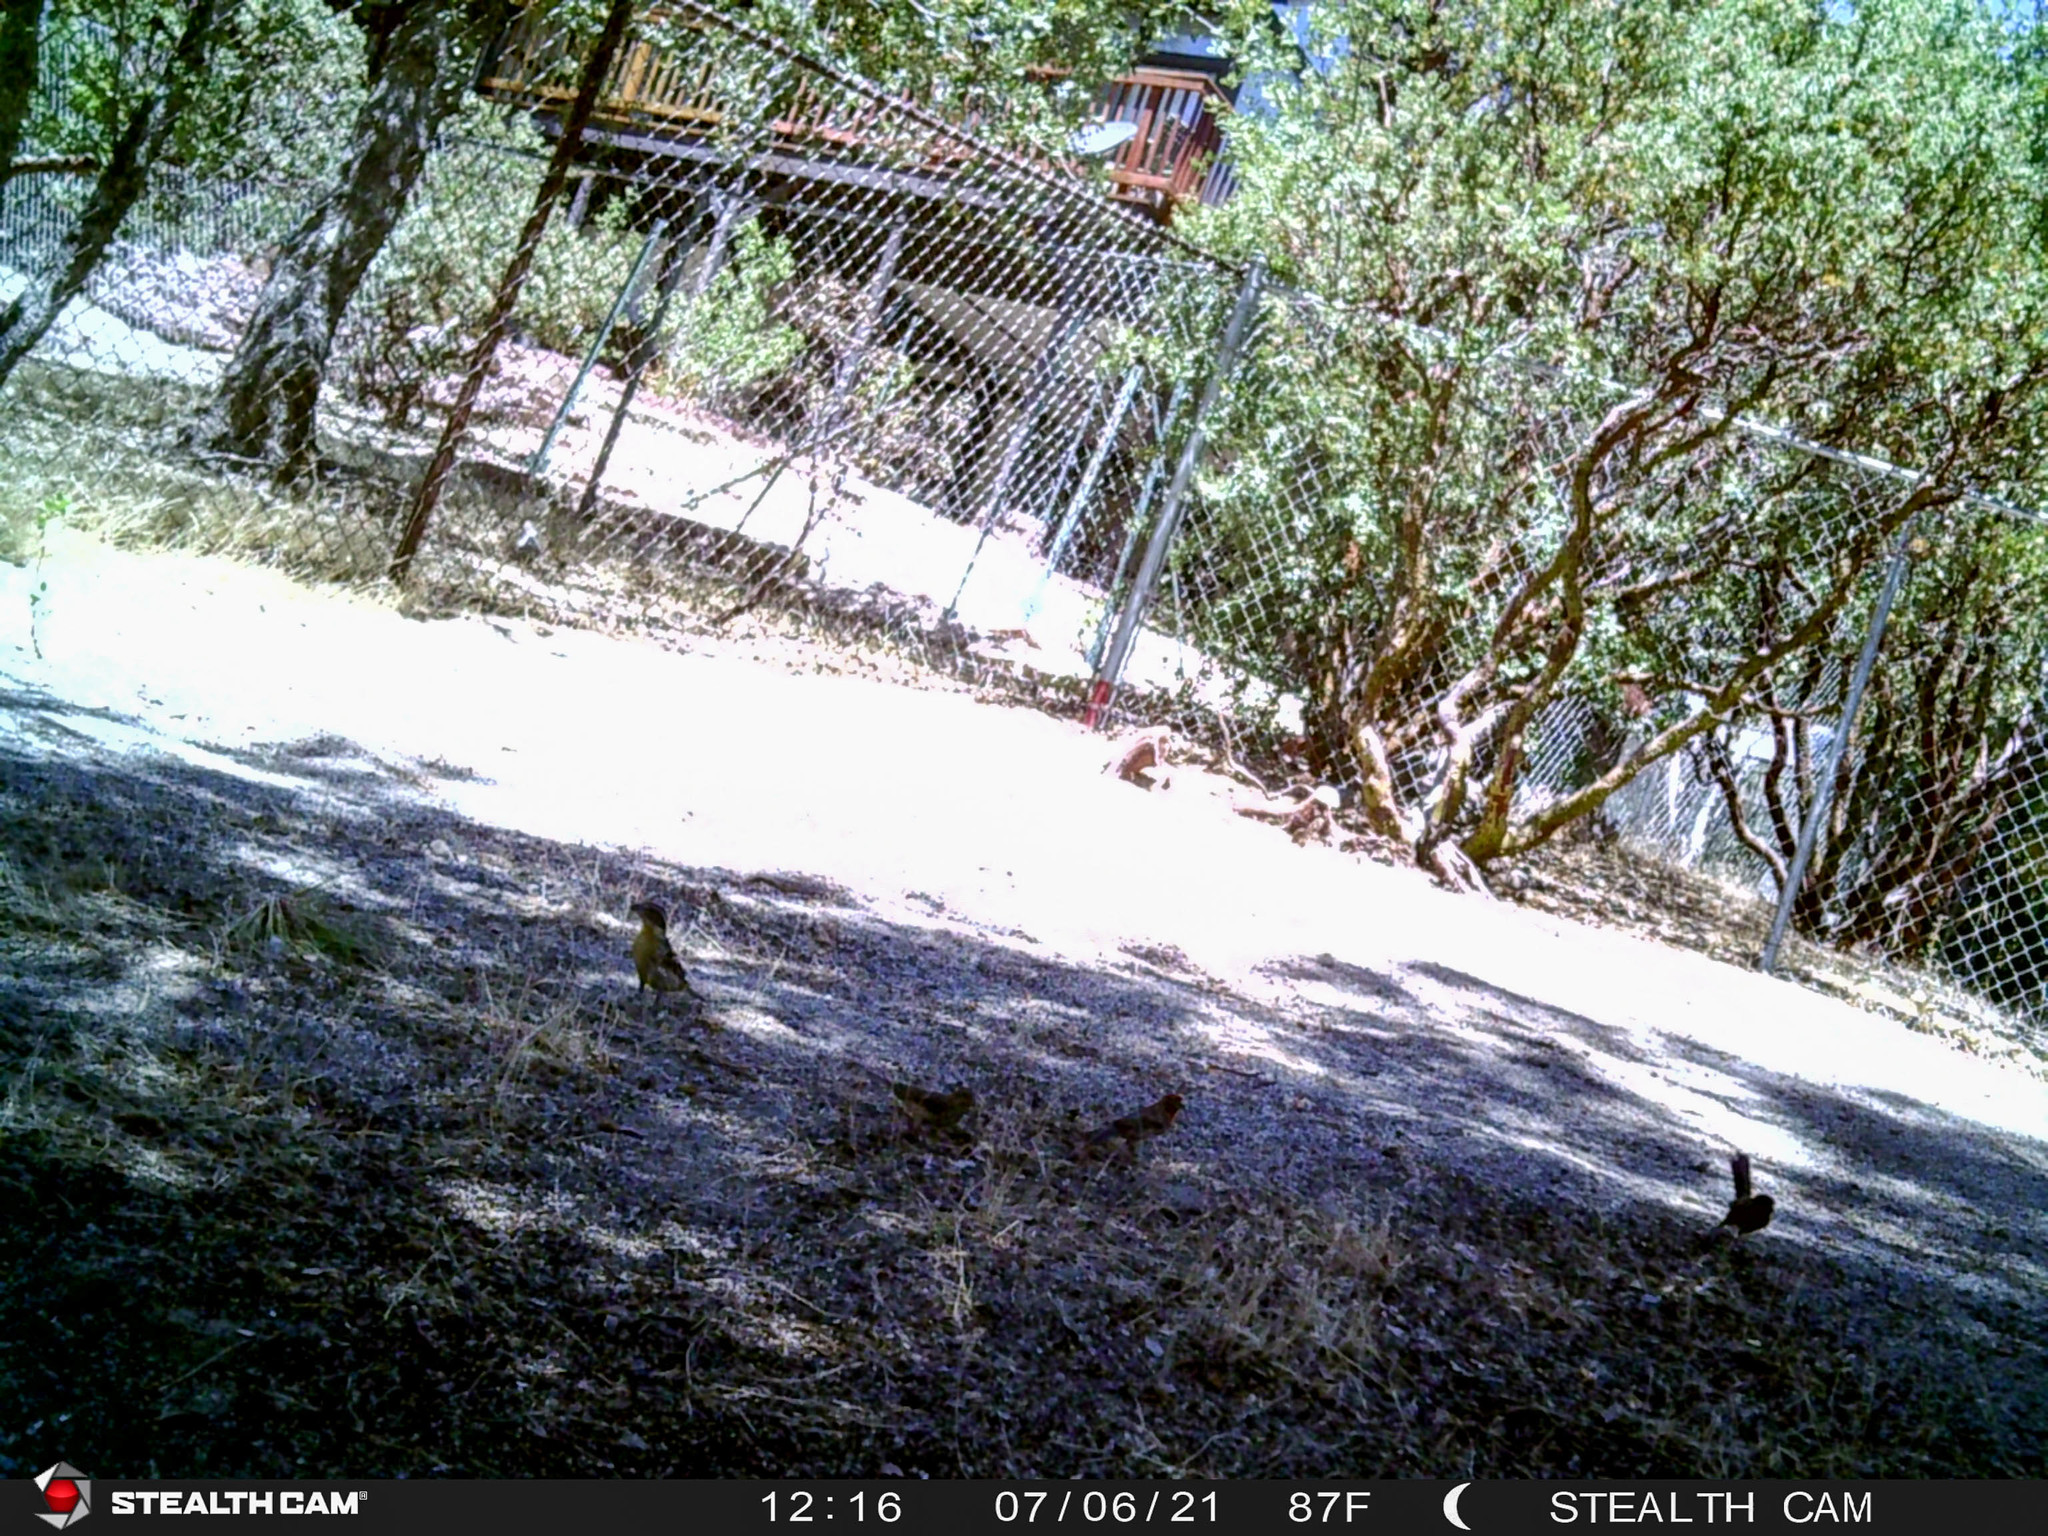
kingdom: Animalia
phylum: Chordata
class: Aves
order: Passeriformes
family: Passerellidae
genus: Pipilo
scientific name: Pipilo maculatus
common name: Spotted towhee
